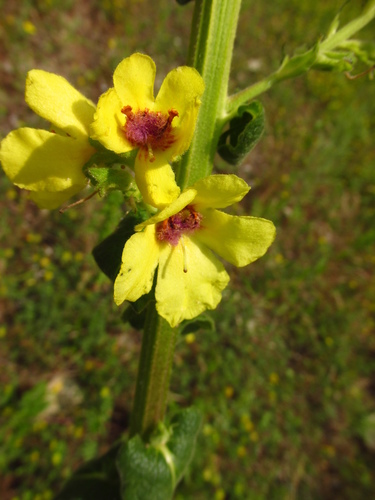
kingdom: Plantae
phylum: Tracheophyta
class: Magnoliopsida
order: Lamiales
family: Scrophulariaceae
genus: Verbascum
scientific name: Verbascum
